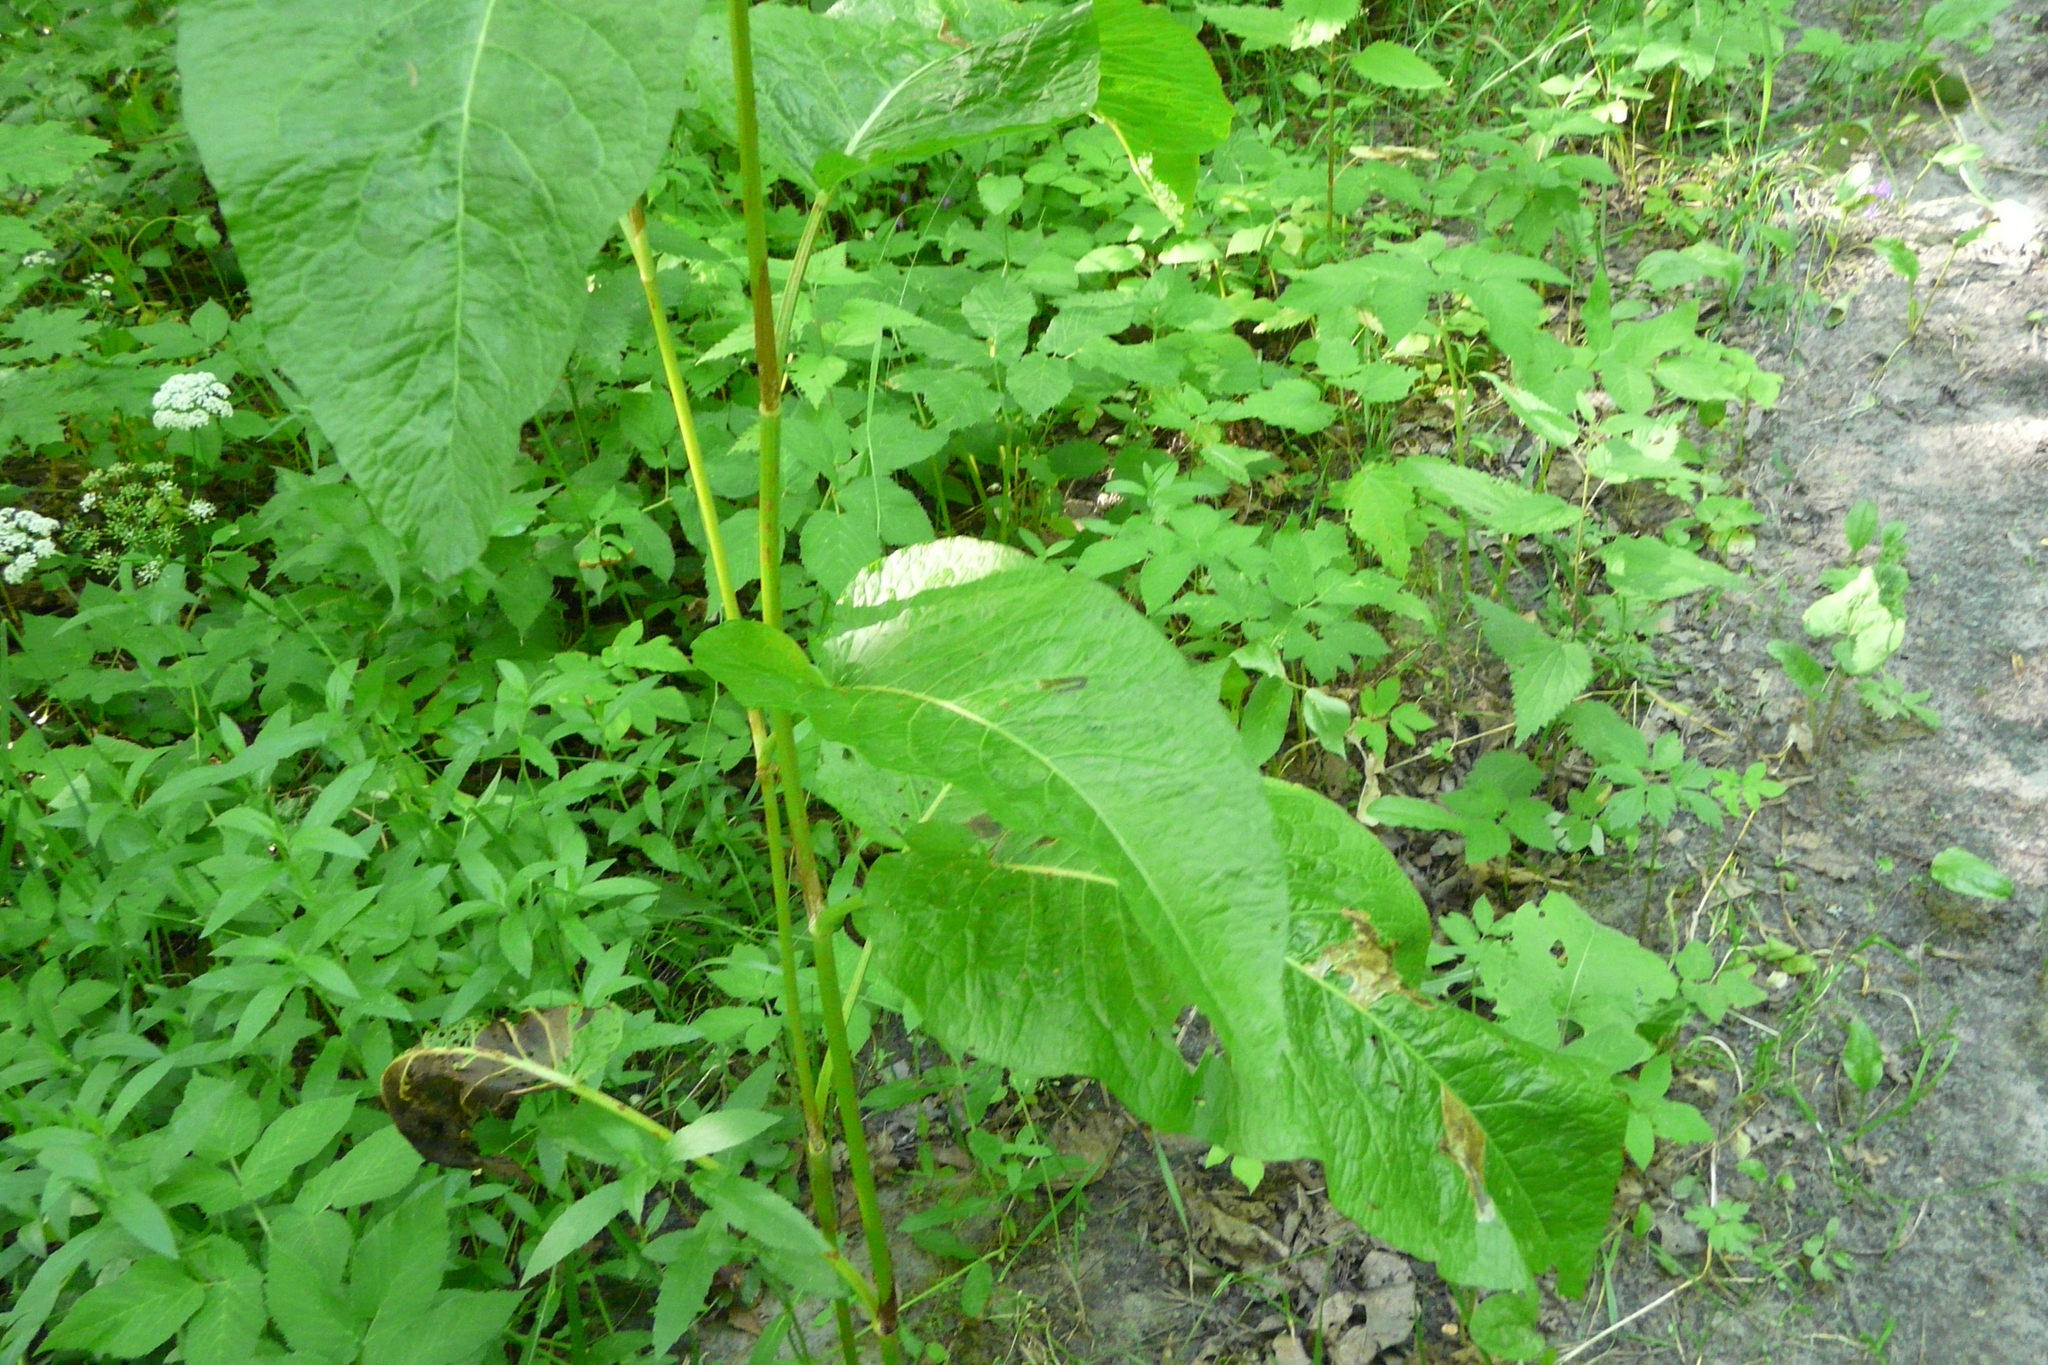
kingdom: Plantae
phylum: Tracheophyta
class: Magnoliopsida
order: Caryophyllales
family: Polygonaceae
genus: Rumex
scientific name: Rumex obtusifolius
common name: Bitter dock
